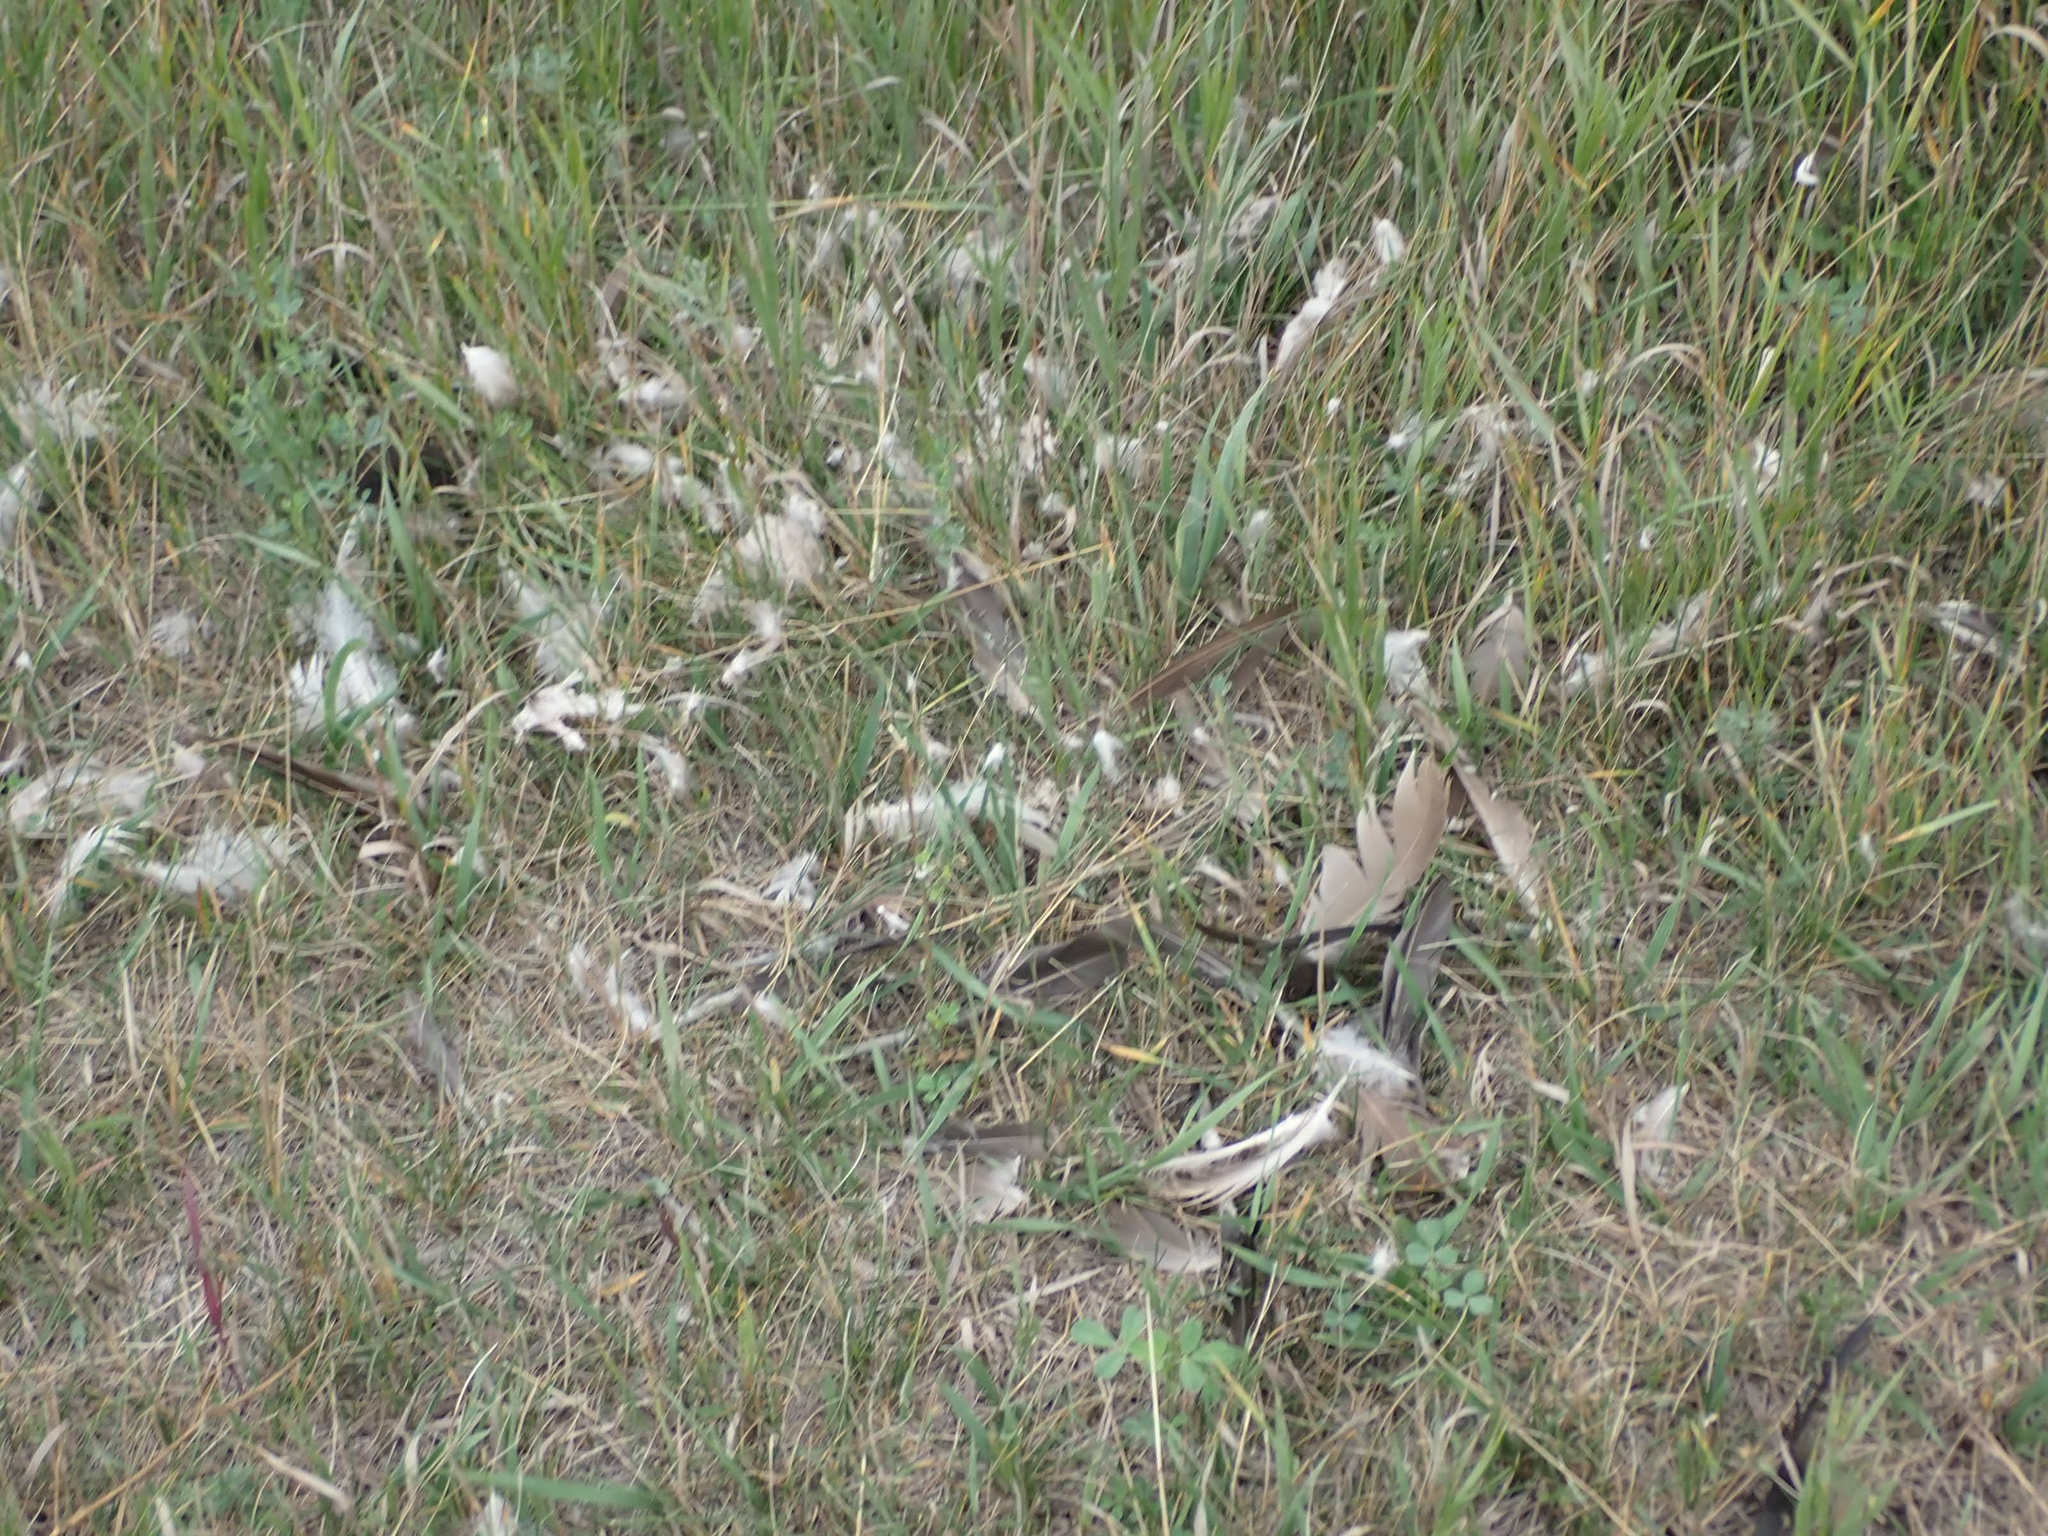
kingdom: Animalia
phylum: Chordata
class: Aves
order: Anseriformes
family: Anatidae
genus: Branta
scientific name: Branta canadensis
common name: Canada goose
